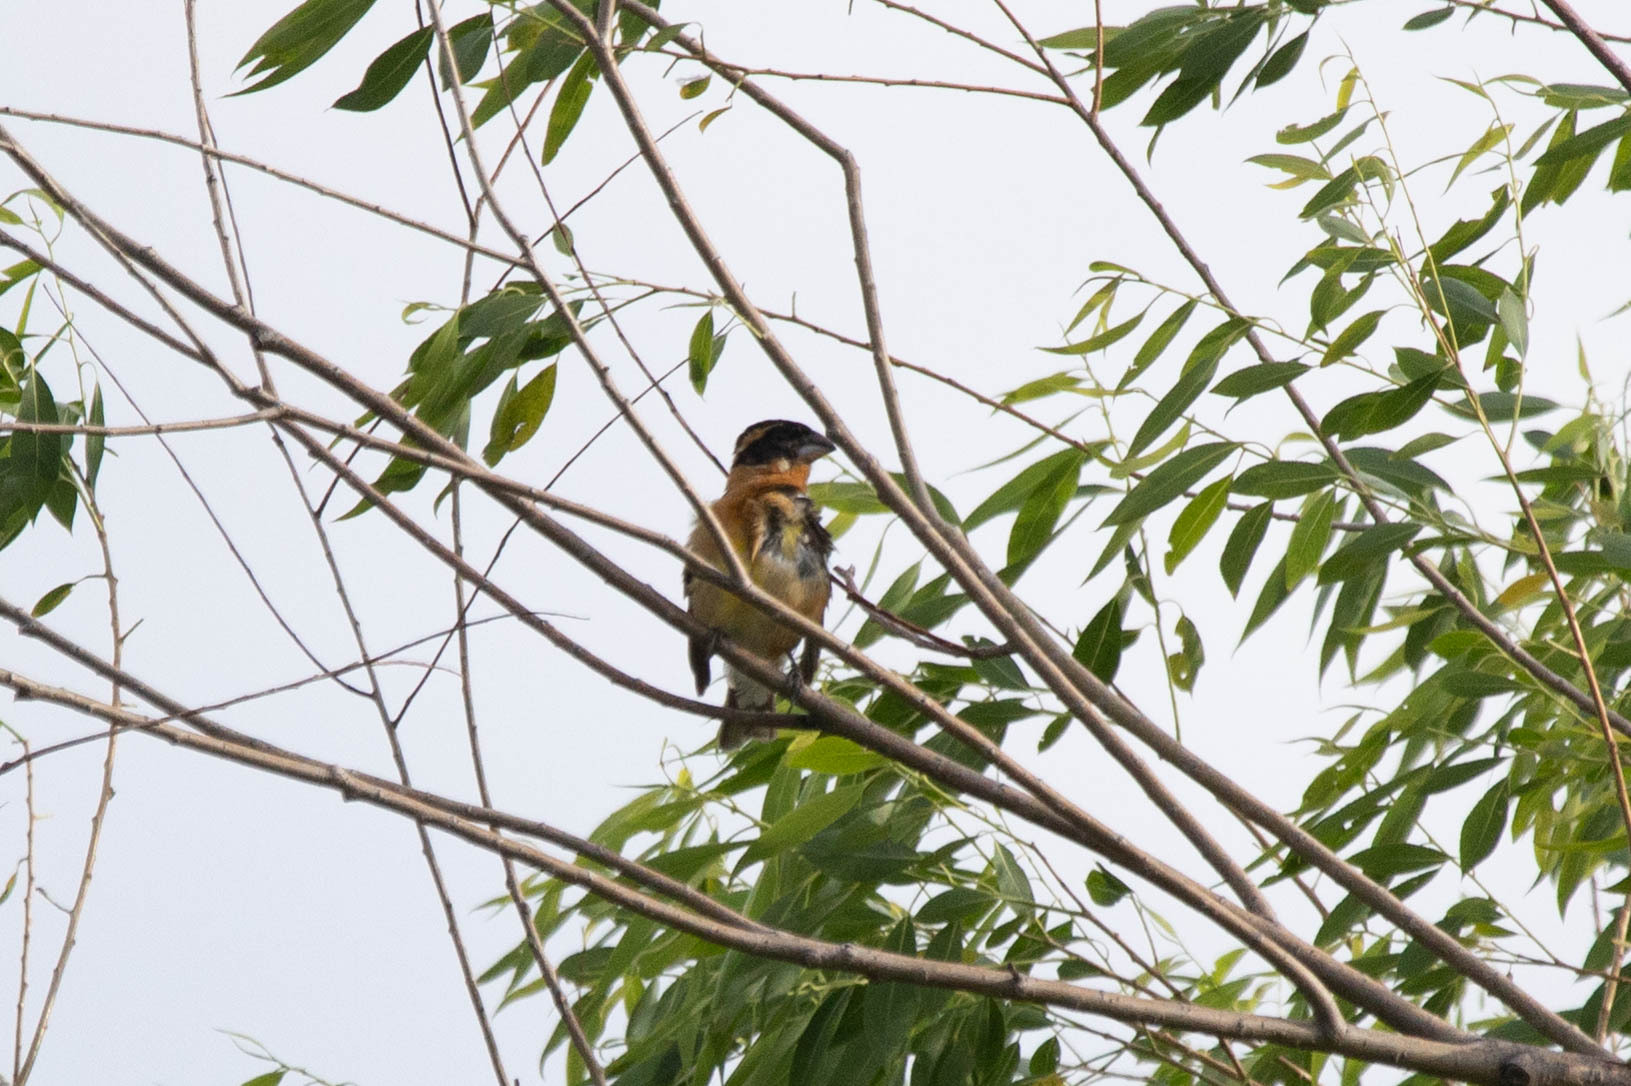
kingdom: Animalia
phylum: Chordata
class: Aves
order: Passeriformes
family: Cardinalidae
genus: Pheucticus
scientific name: Pheucticus melanocephalus
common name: Black-headed grosbeak
